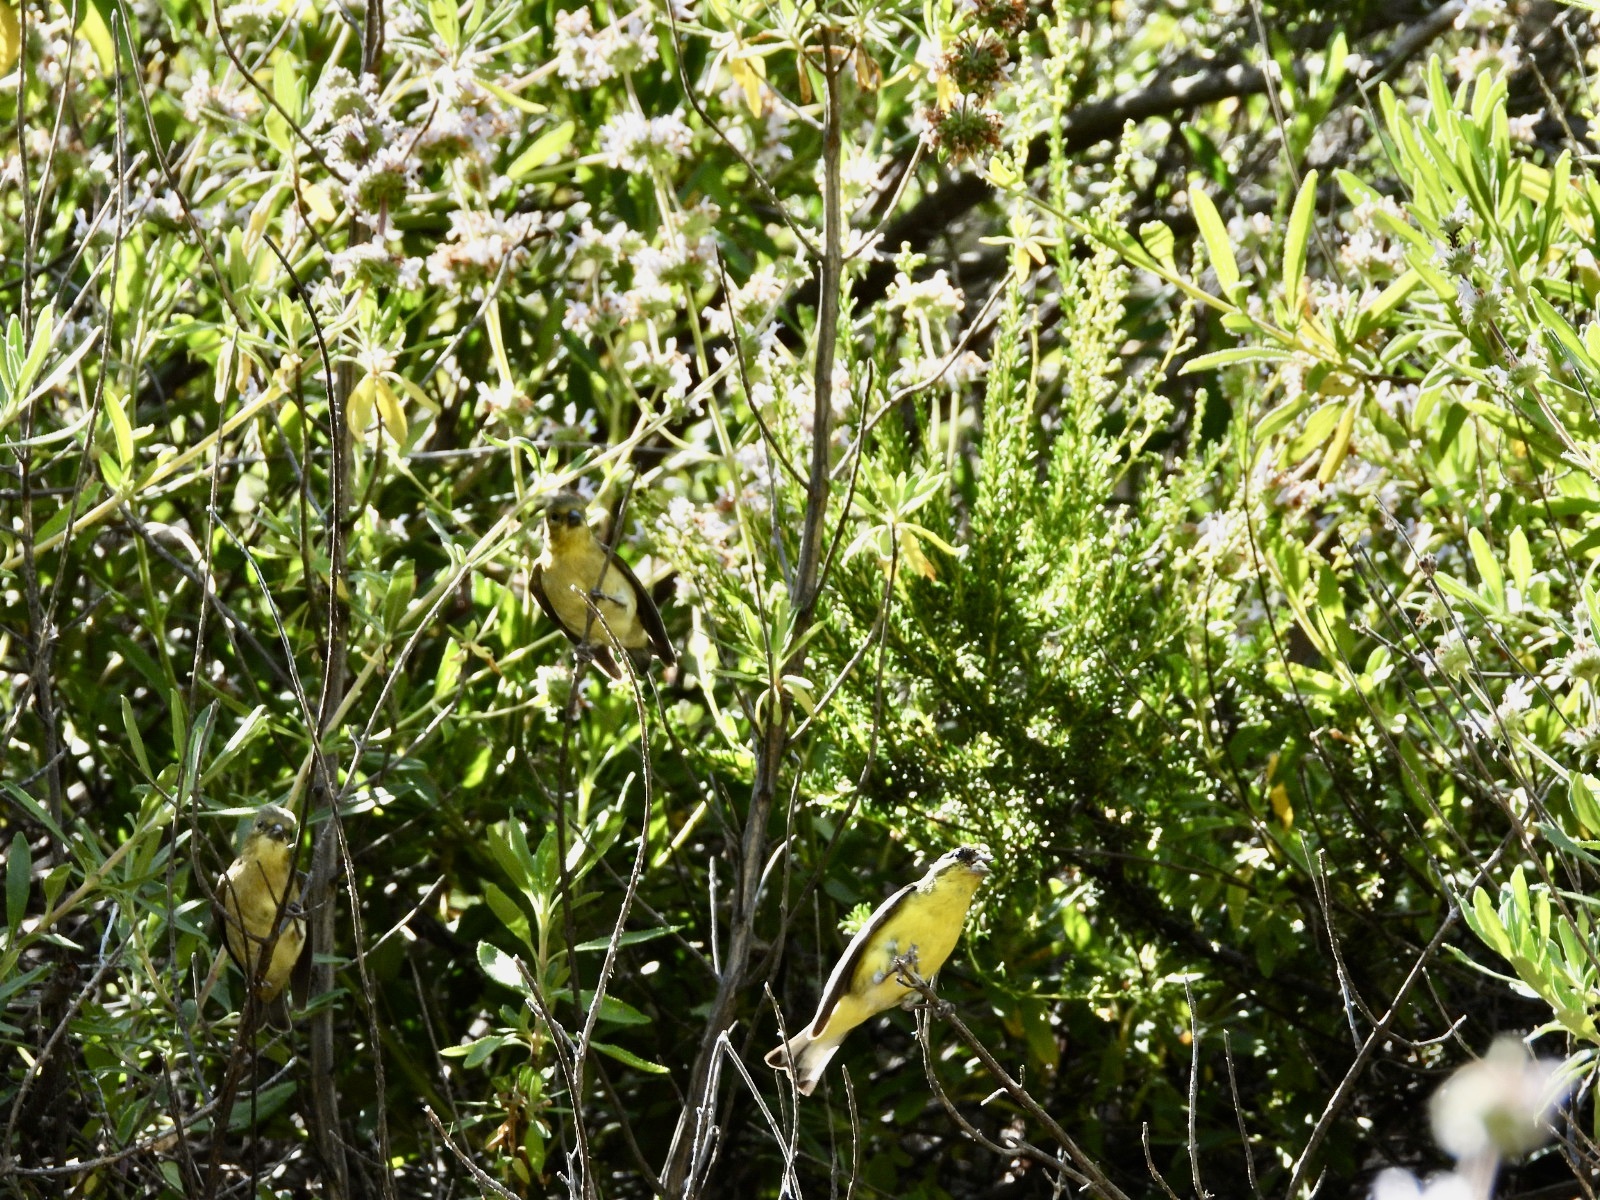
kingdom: Animalia
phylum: Chordata
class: Aves
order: Passeriformes
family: Fringillidae
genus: Spinus
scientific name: Spinus psaltria
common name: Lesser goldfinch
